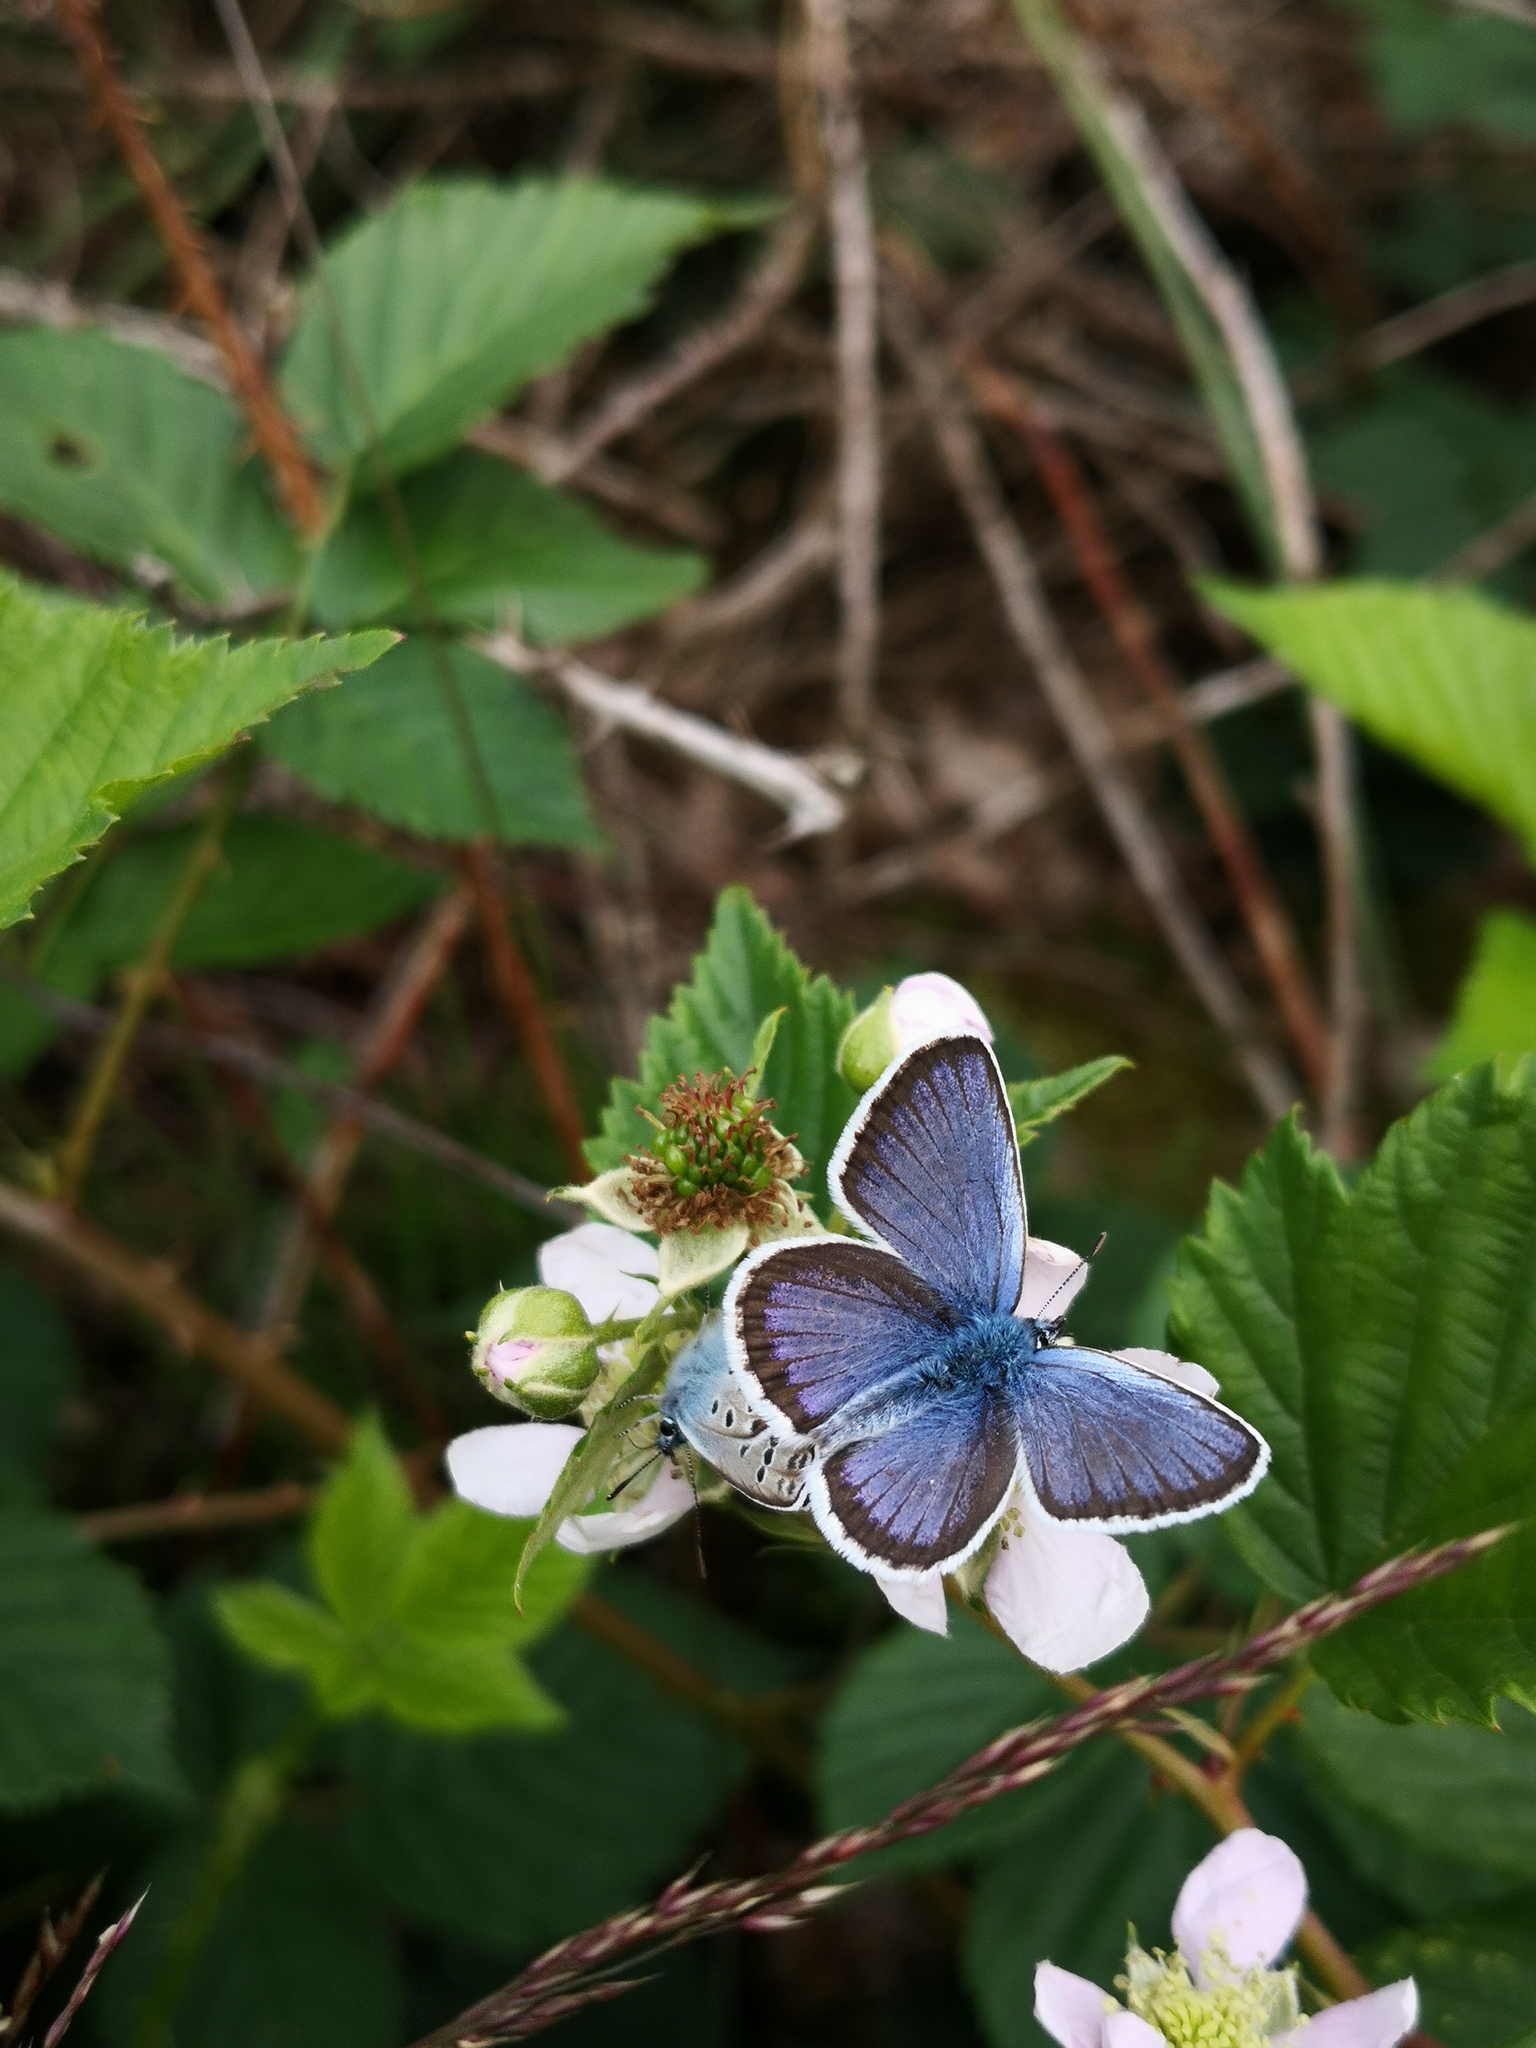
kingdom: Animalia
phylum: Arthropoda
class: Insecta
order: Lepidoptera
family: Lycaenidae
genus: Plebejus
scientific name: Plebejus argus
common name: Silver-studded blue
